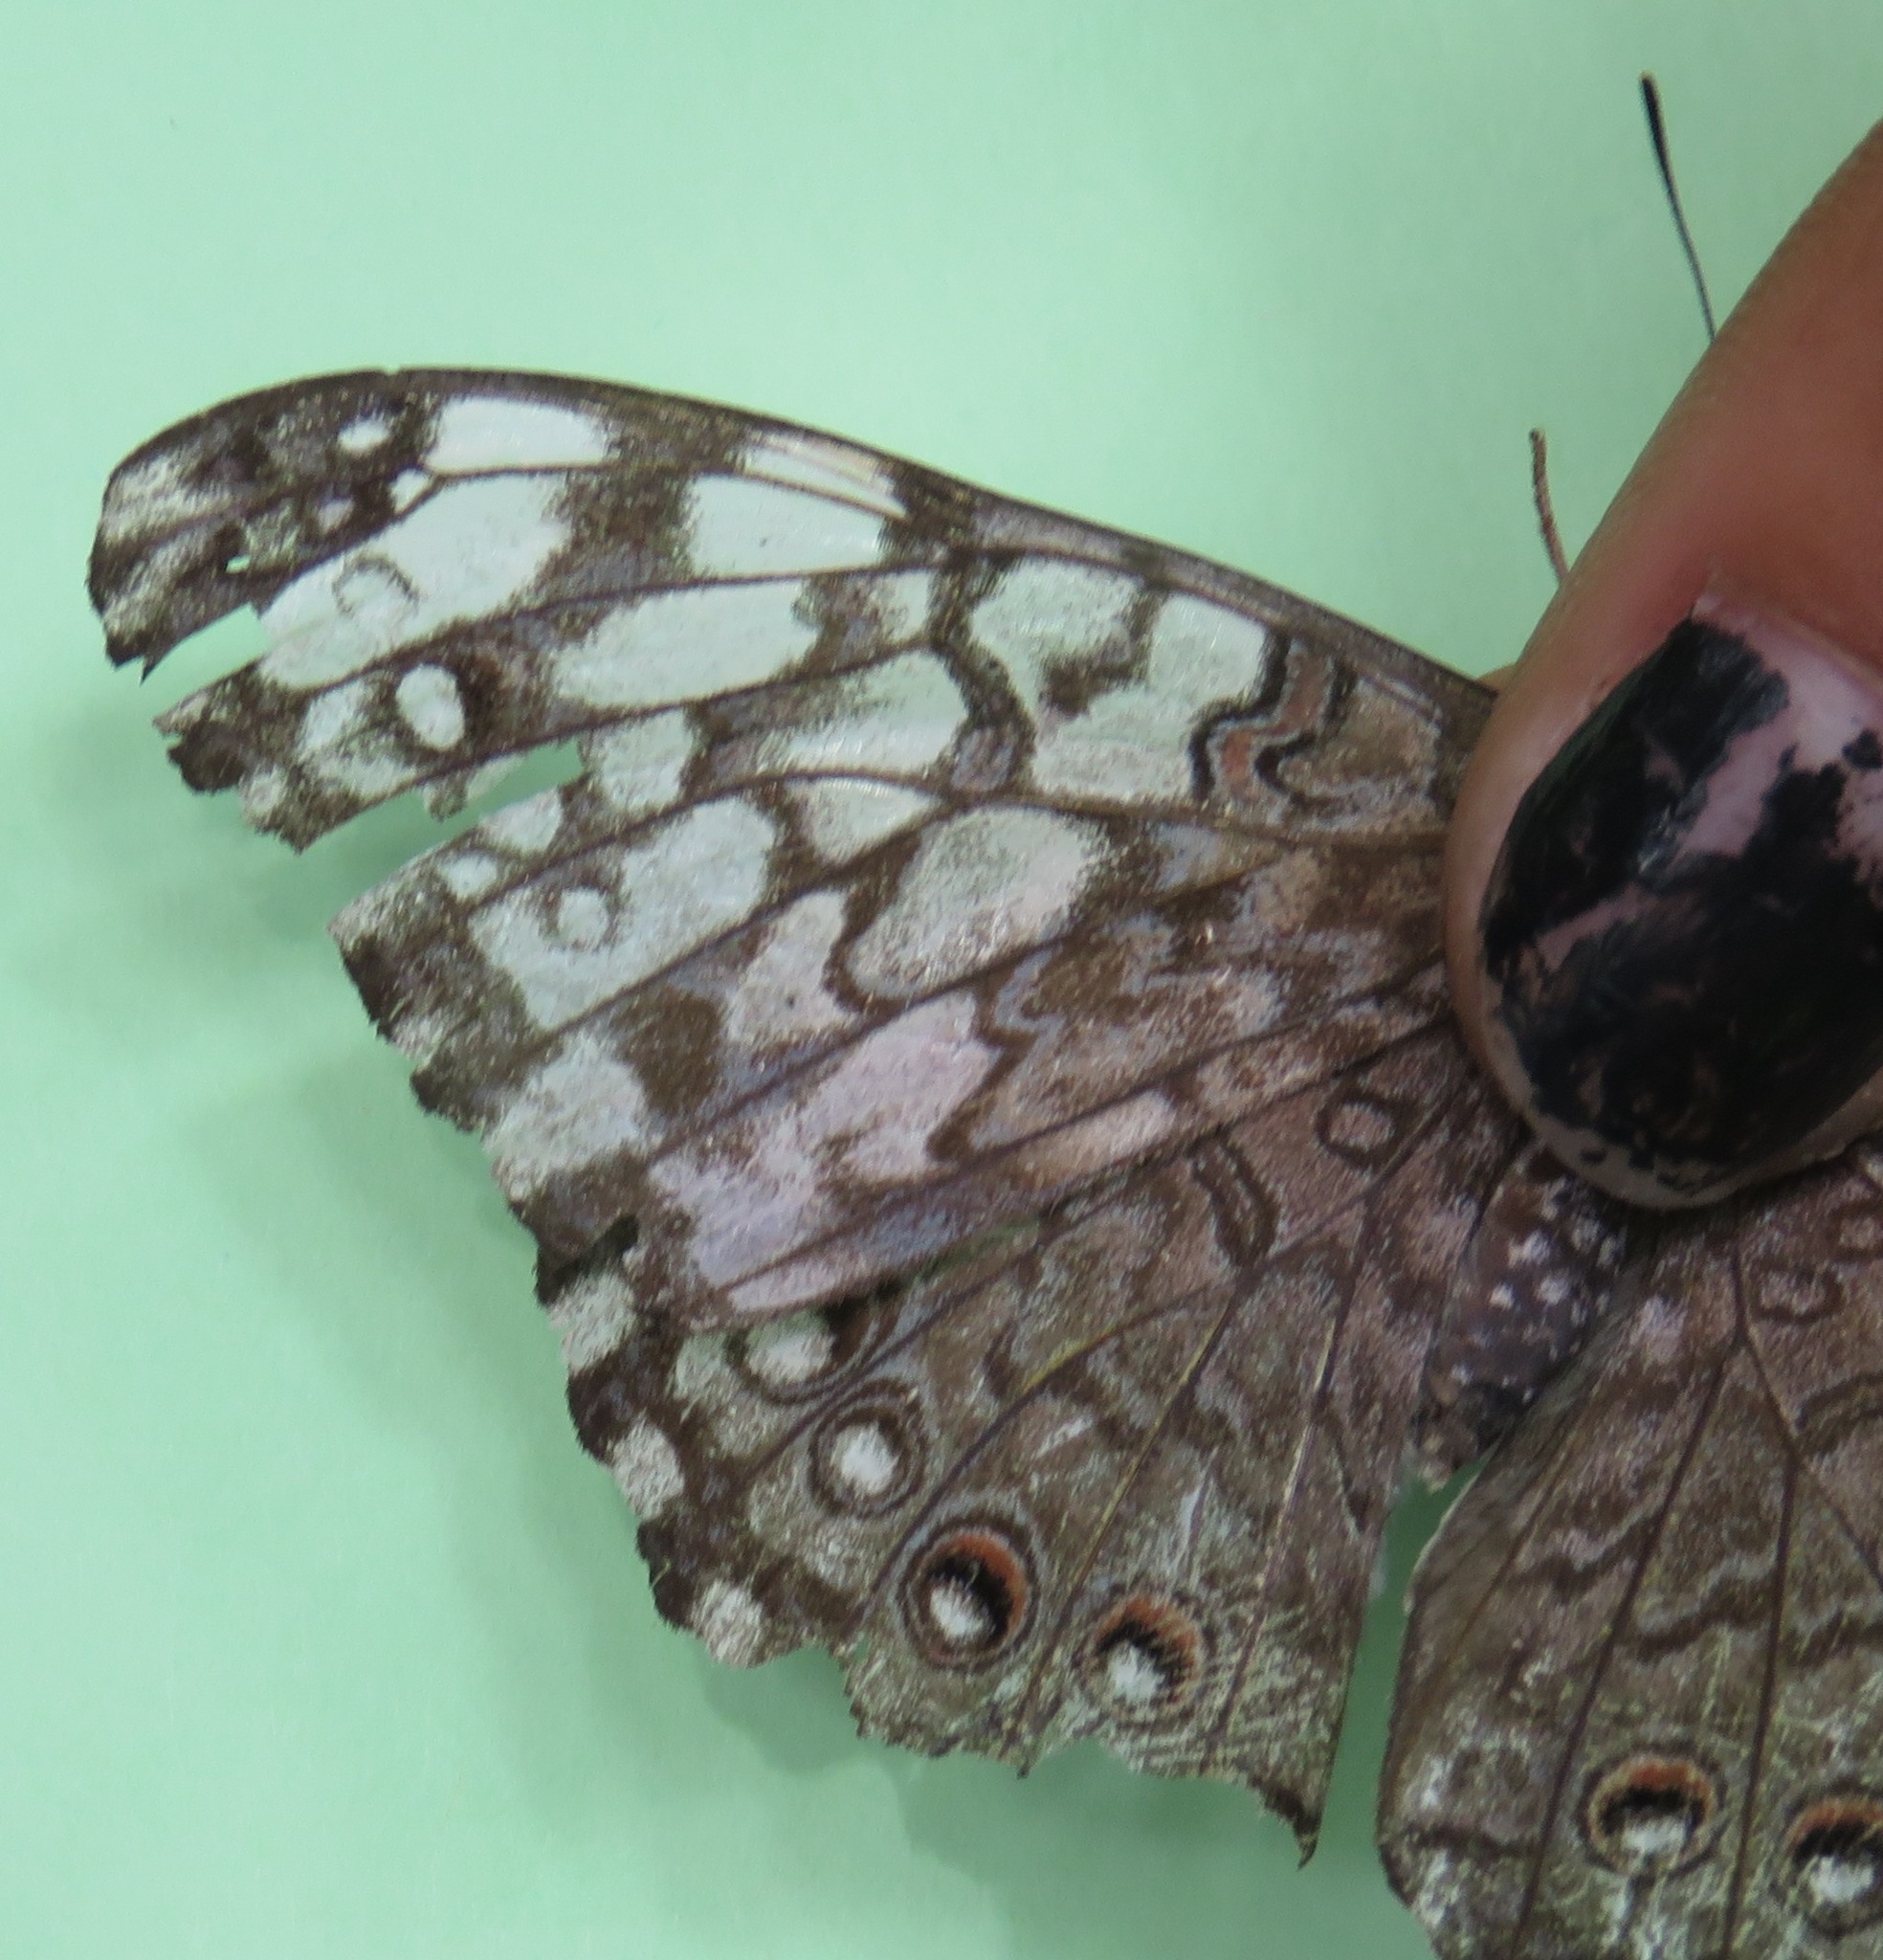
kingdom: Animalia
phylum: Arthropoda
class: Insecta
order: Lepidoptera
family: Nymphalidae
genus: Hamadryas
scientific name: Hamadryas februa
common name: Gray cracker
